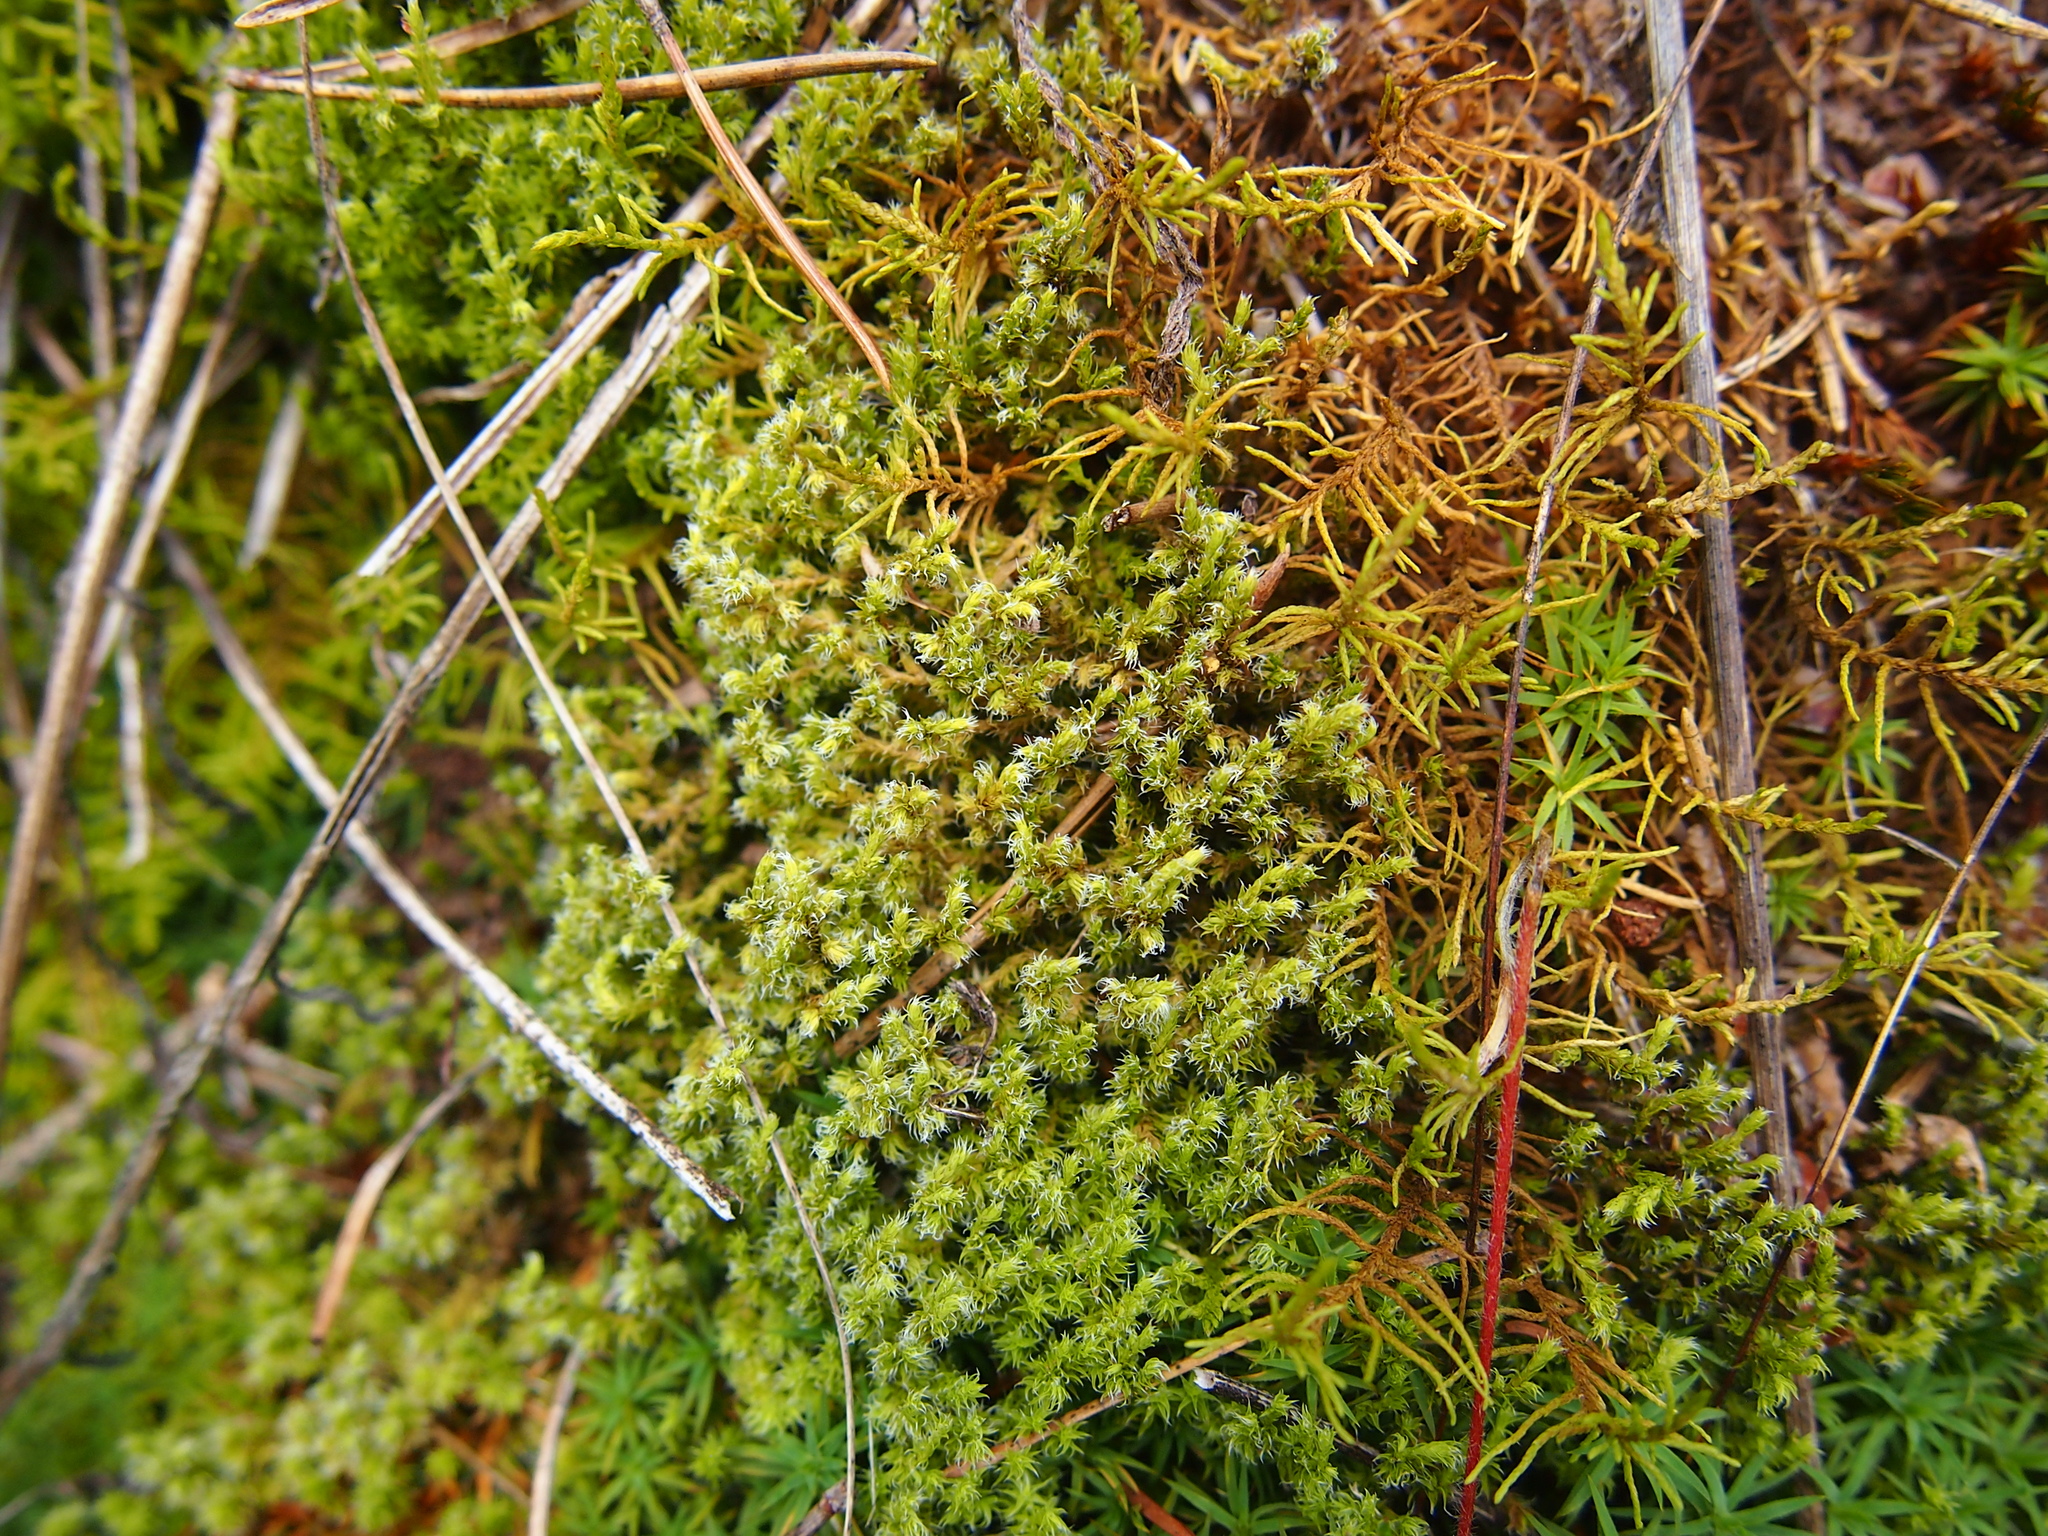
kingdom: Plantae
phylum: Bryophyta
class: Bryopsida
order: Grimmiales
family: Grimmiaceae
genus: Racomitrium
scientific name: Racomitrium lanuginosum
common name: Hoary rock moss
